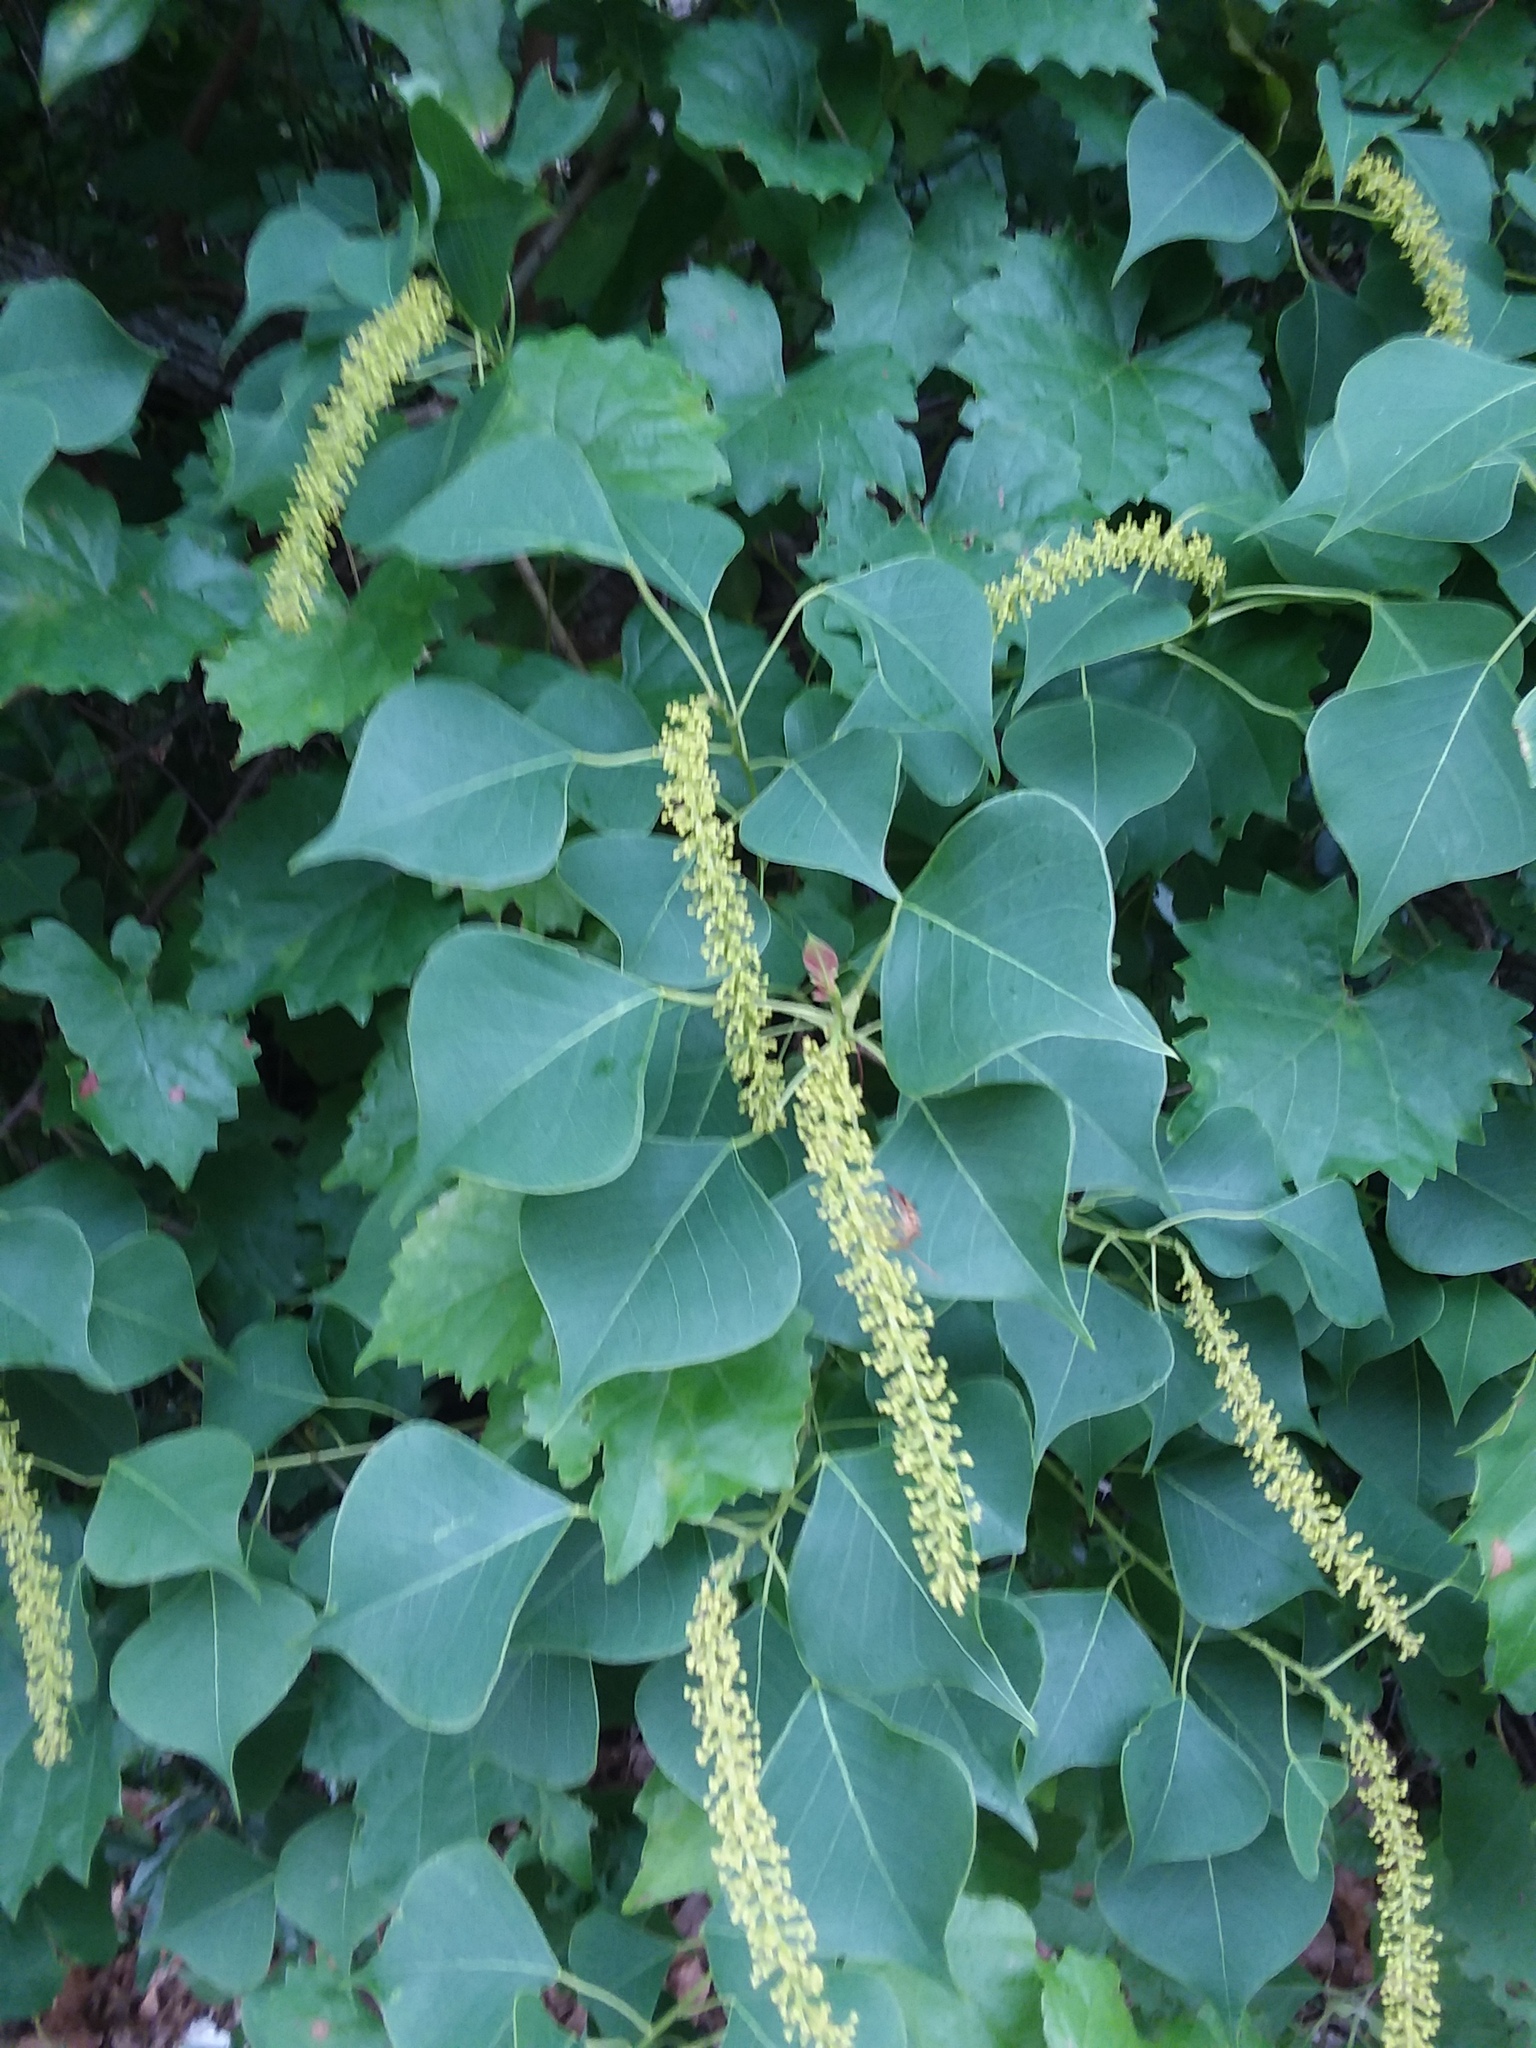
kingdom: Plantae
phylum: Tracheophyta
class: Magnoliopsida
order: Malpighiales
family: Euphorbiaceae
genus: Triadica
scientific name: Triadica sebifera
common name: Chinese tallow
